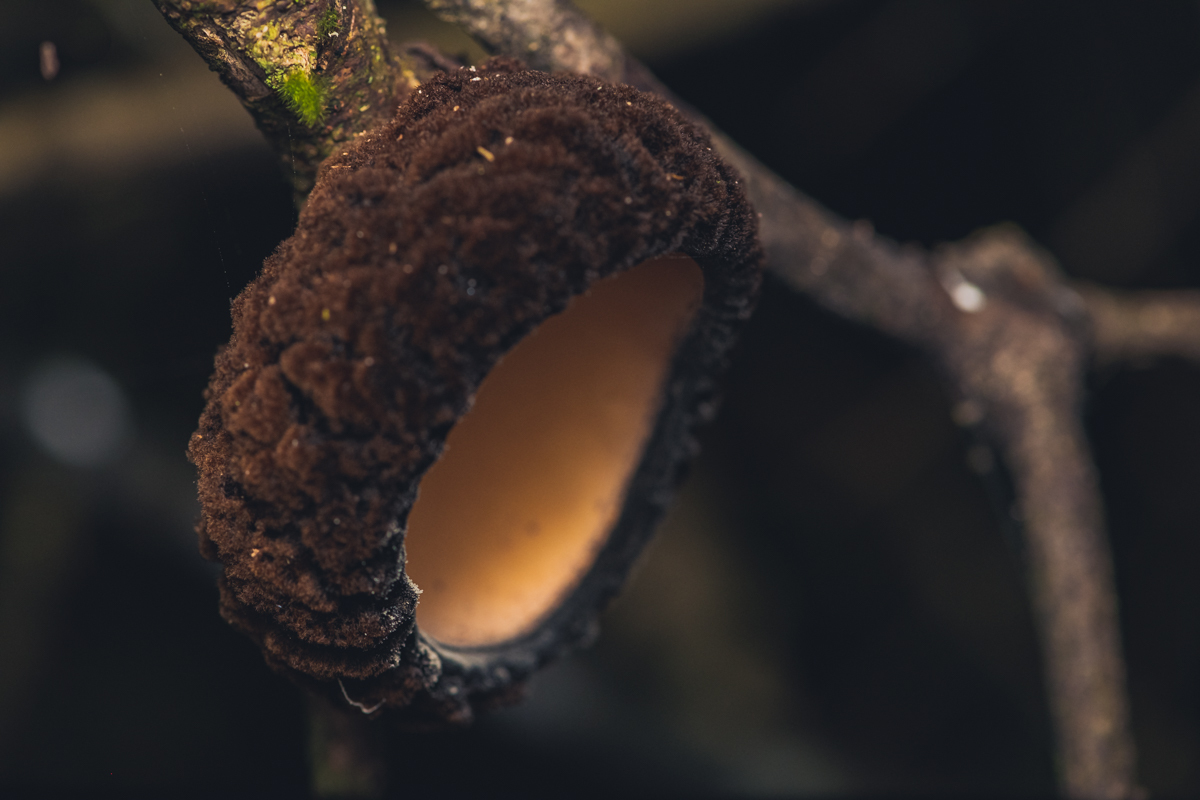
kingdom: Fungi
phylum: Ascomycota
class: Pezizomycetes
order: Pezizales
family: Sarcosomataceae
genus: Sarcosoma
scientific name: Sarcosoma orientale
